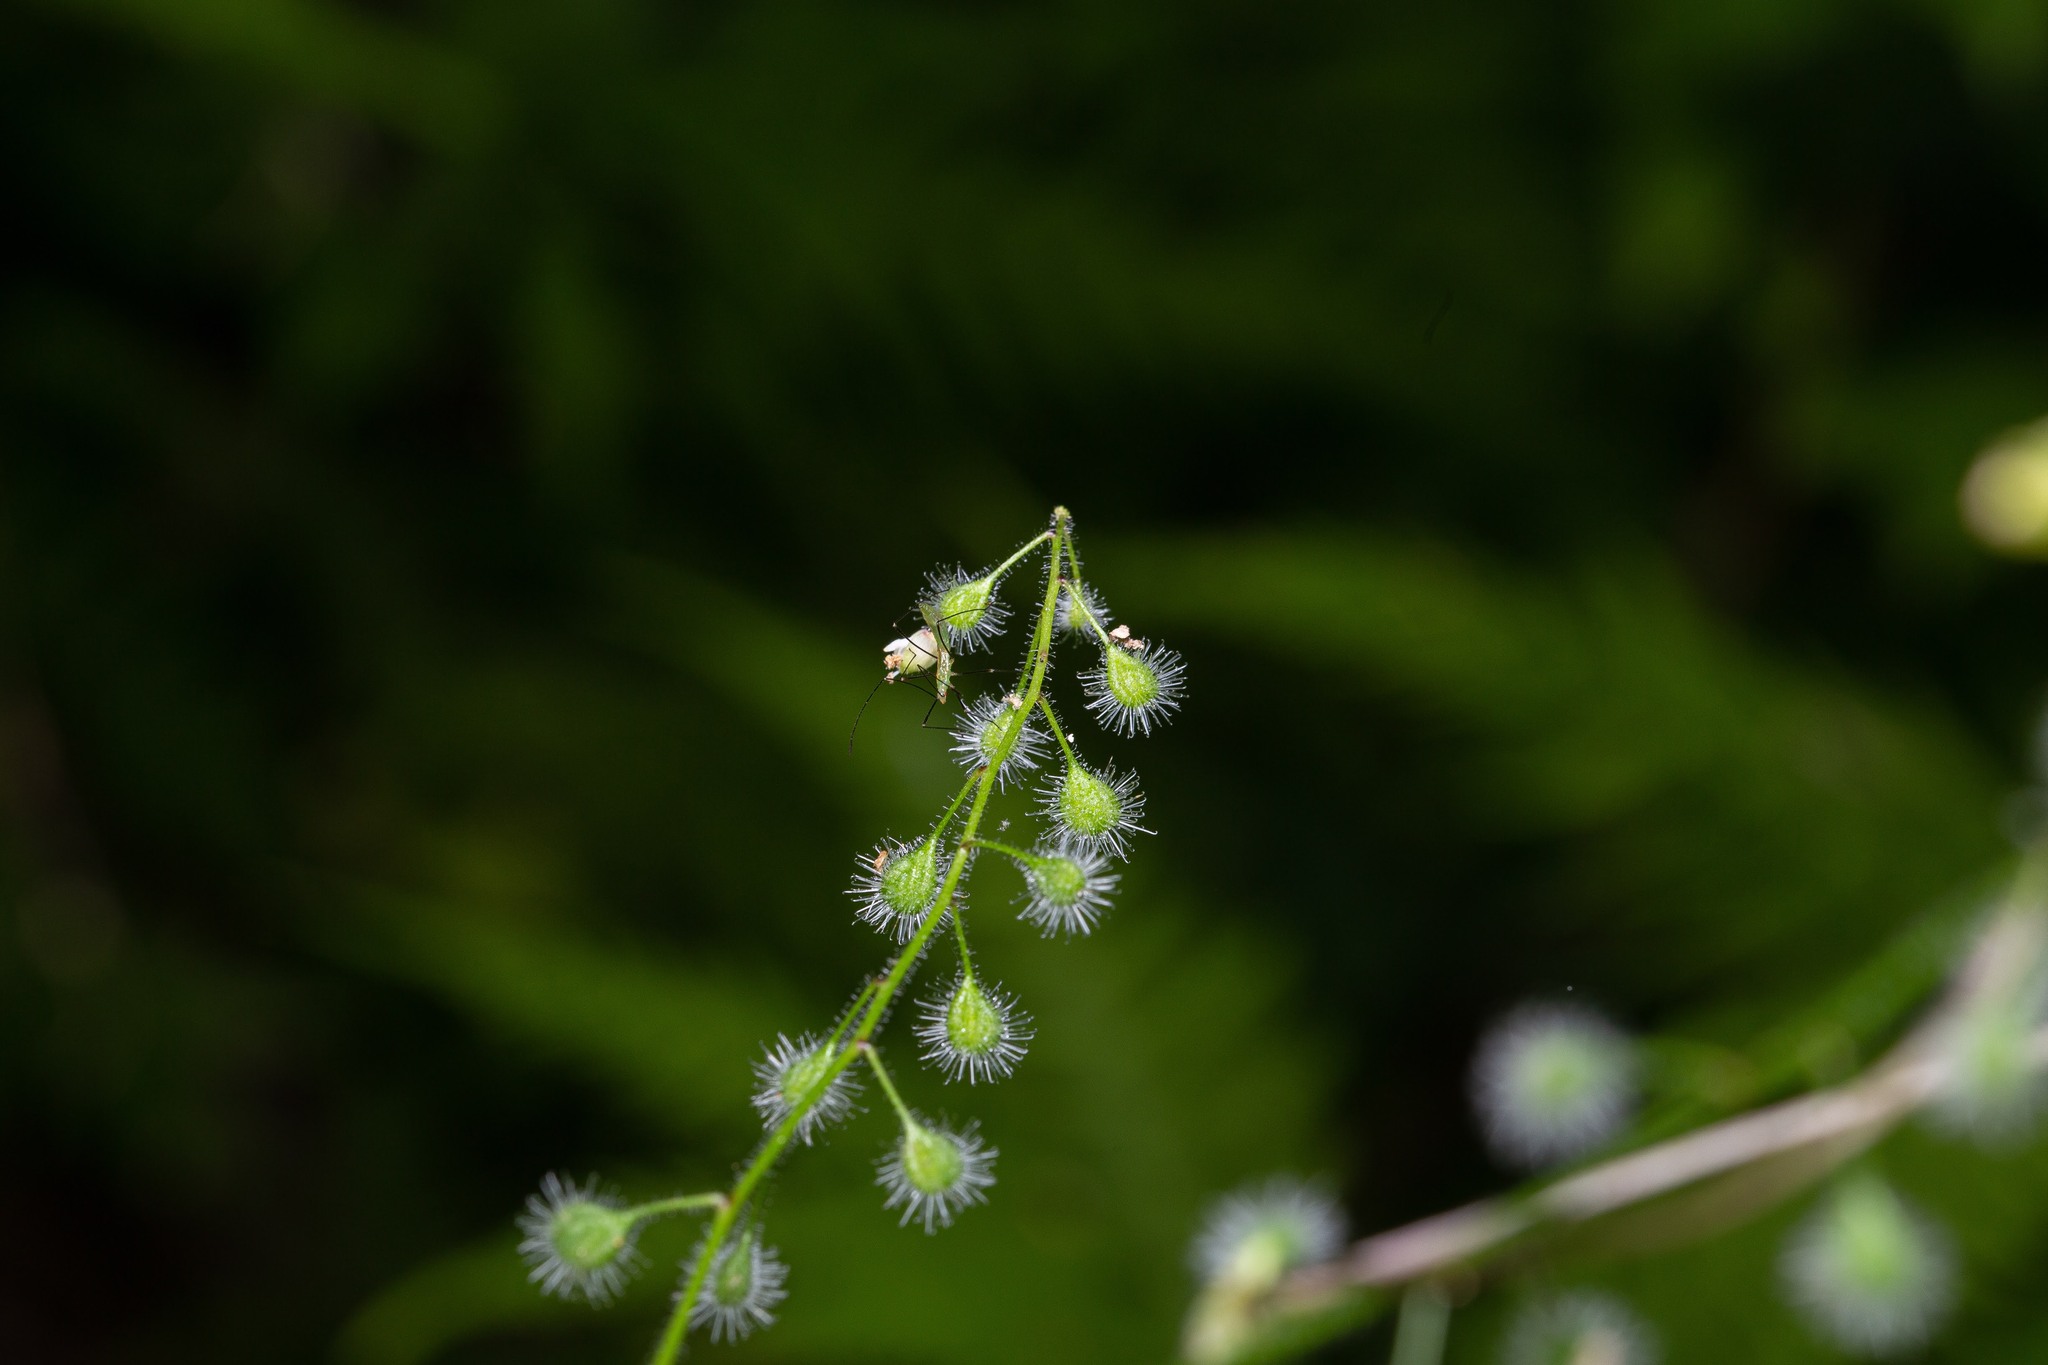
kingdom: Plantae
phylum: Tracheophyta
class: Magnoliopsida
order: Myrtales
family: Onagraceae
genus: Circaea
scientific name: Circaea canadensis
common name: Broad-leaved enchanter's nightshade
